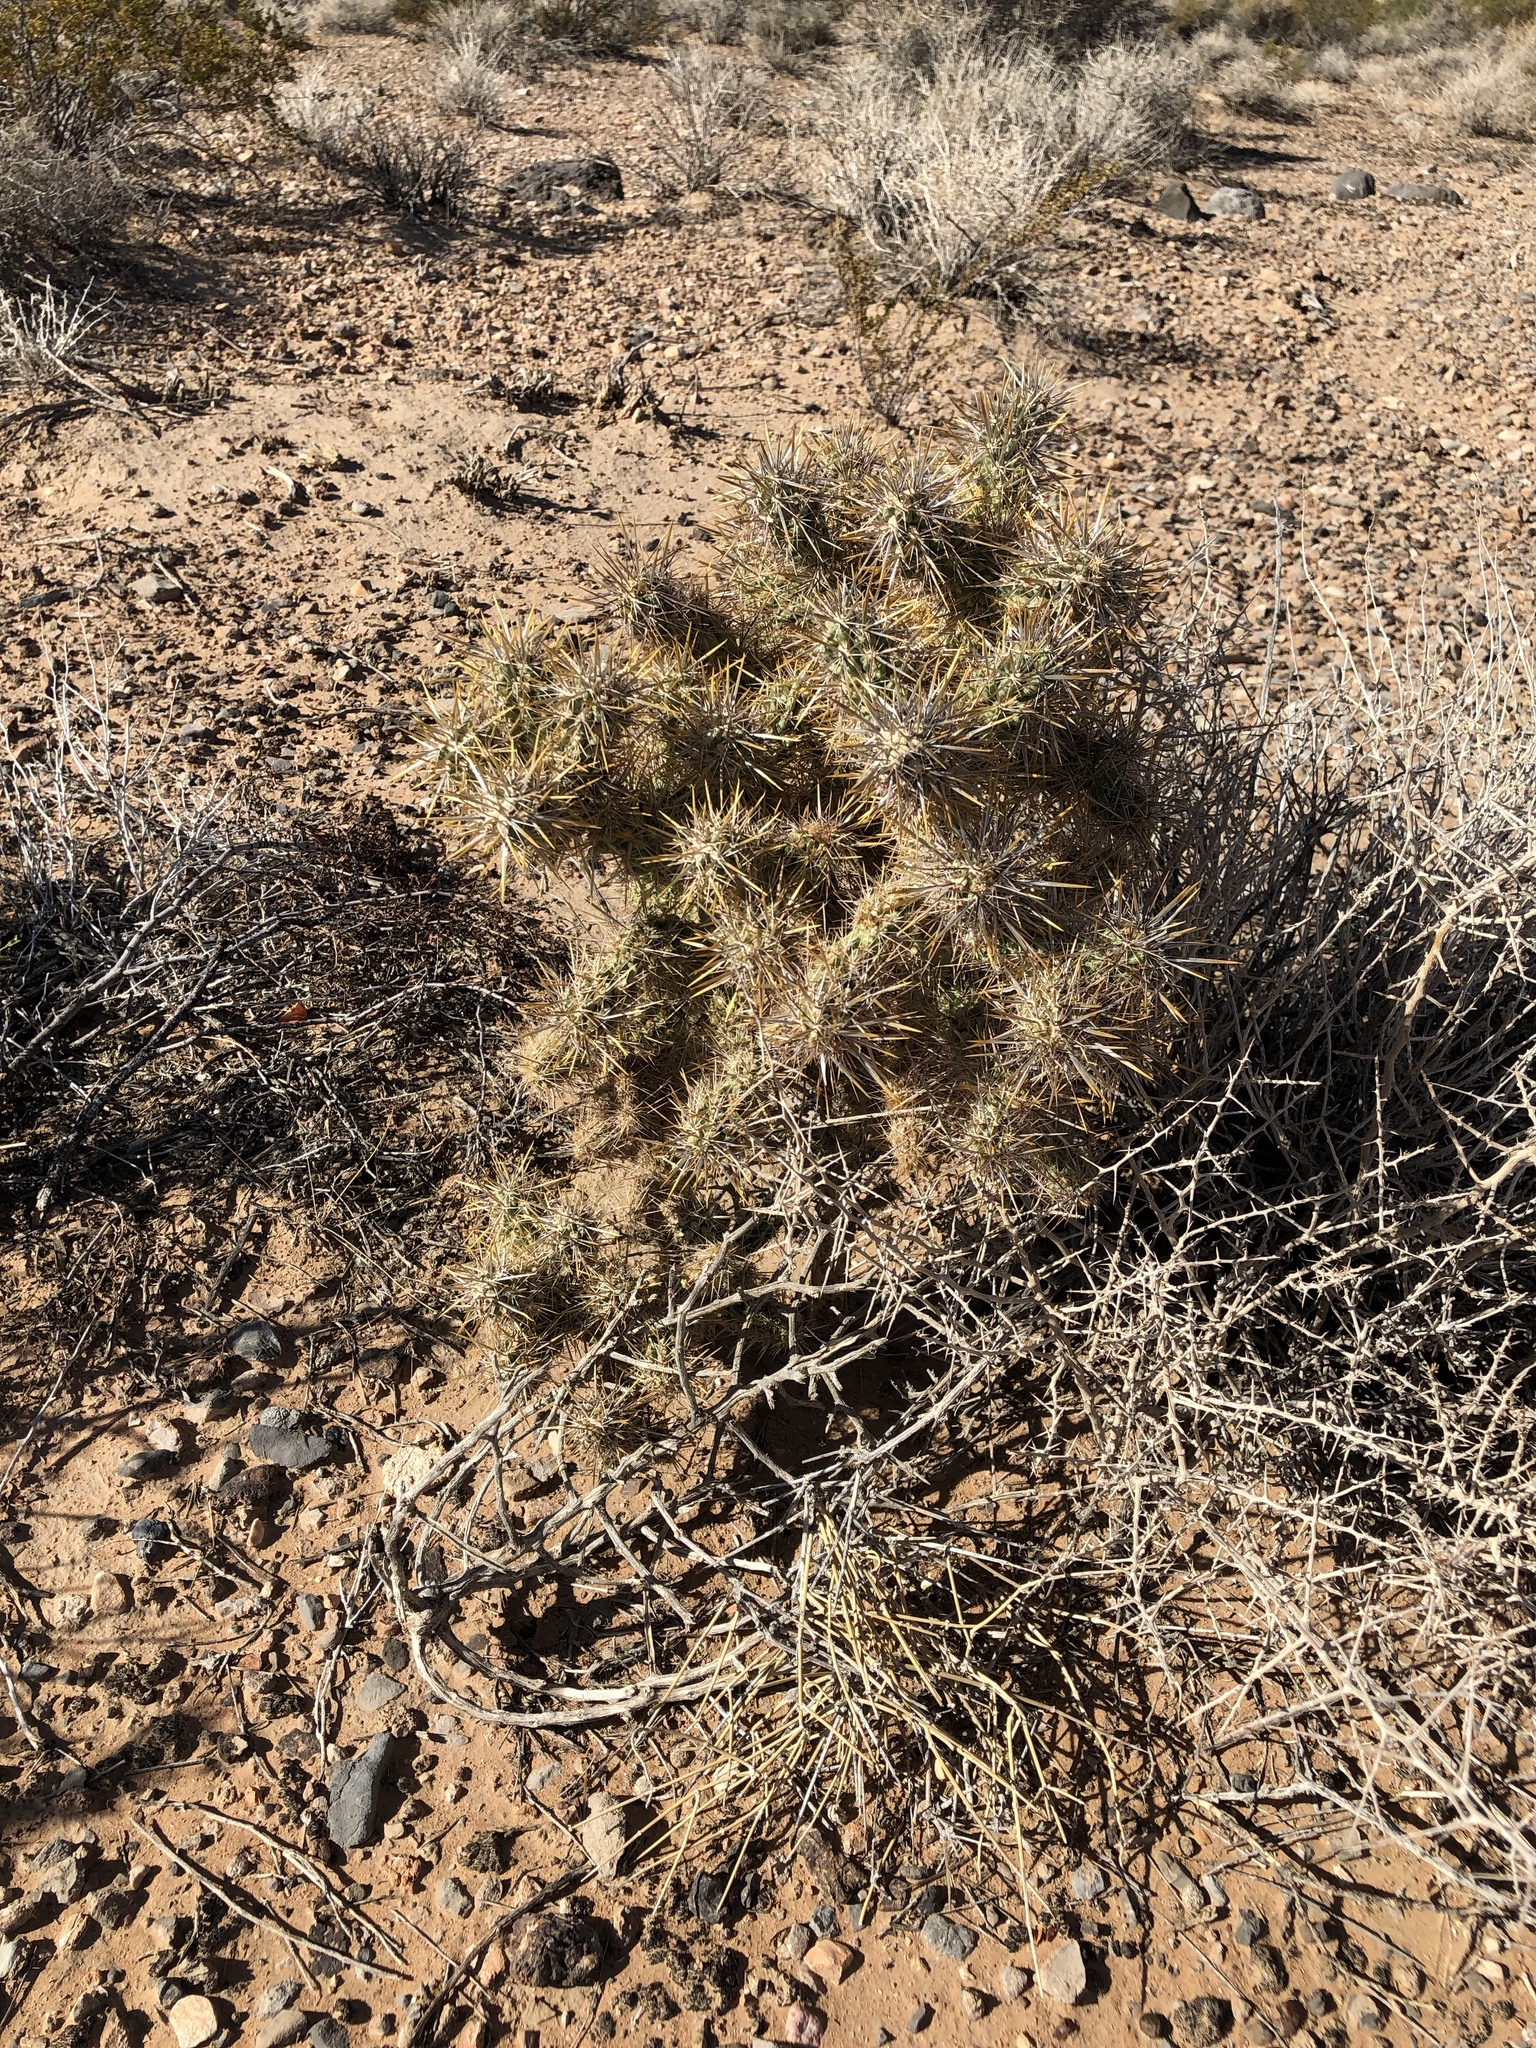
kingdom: Plantae
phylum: Tracheophyta
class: Magnoliopsida
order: Caryophyllales
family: Cactaceae
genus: Cylindropuntia
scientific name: Cylindropuntia echinocarpa
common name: Ground cholla
